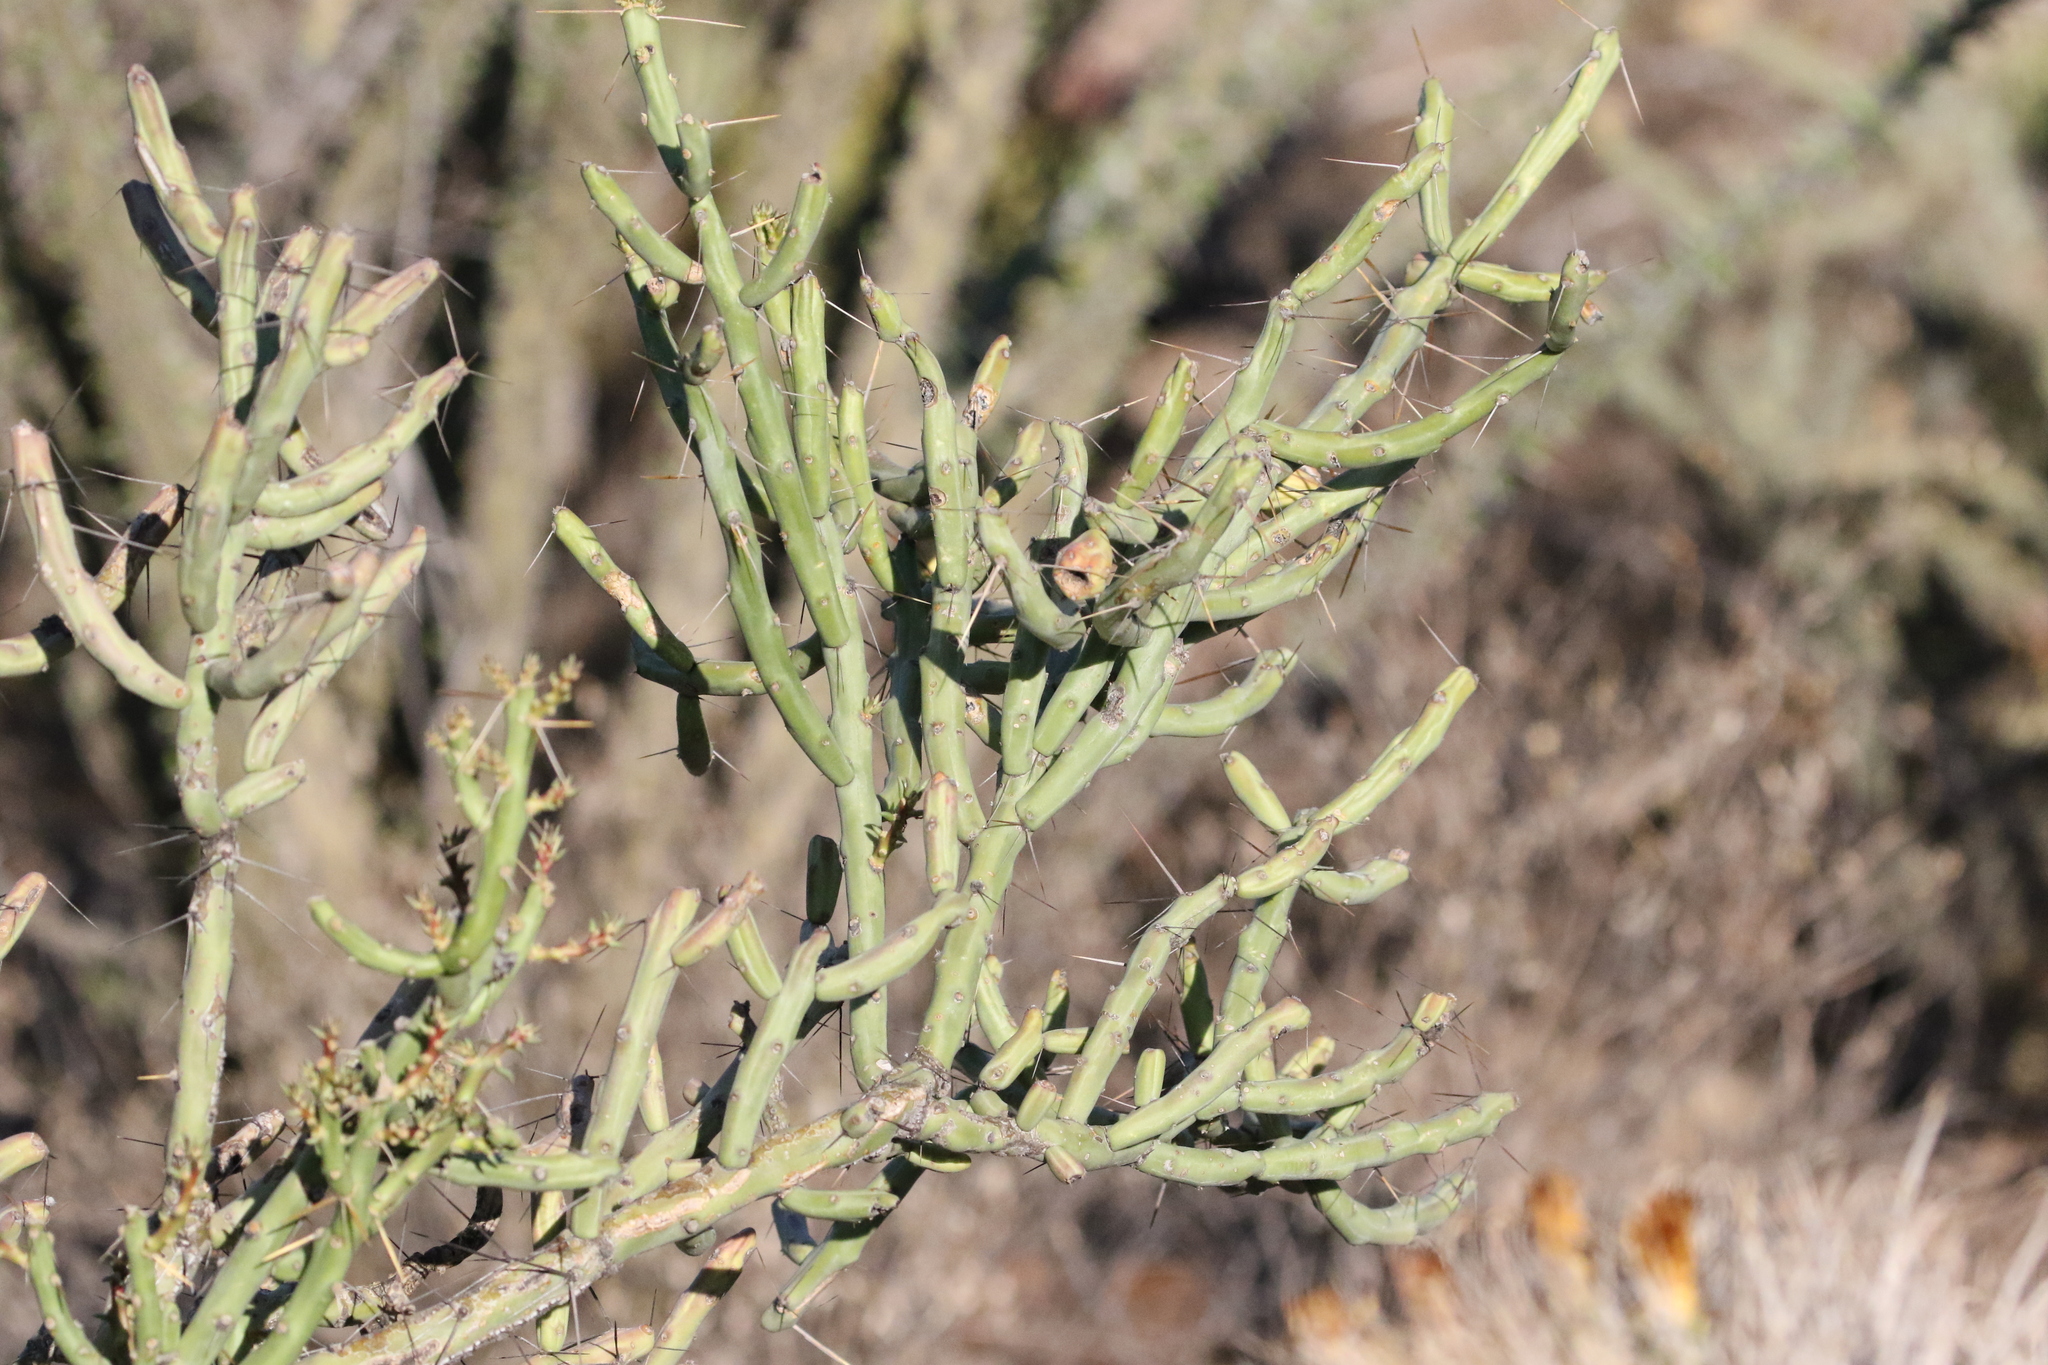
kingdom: Plantae
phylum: Tracheophyta
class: Magnoliopsida
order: Caryophyllales
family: Cactaceae
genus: Cylindropuntia
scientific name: Cylindropuntia arbuscula
